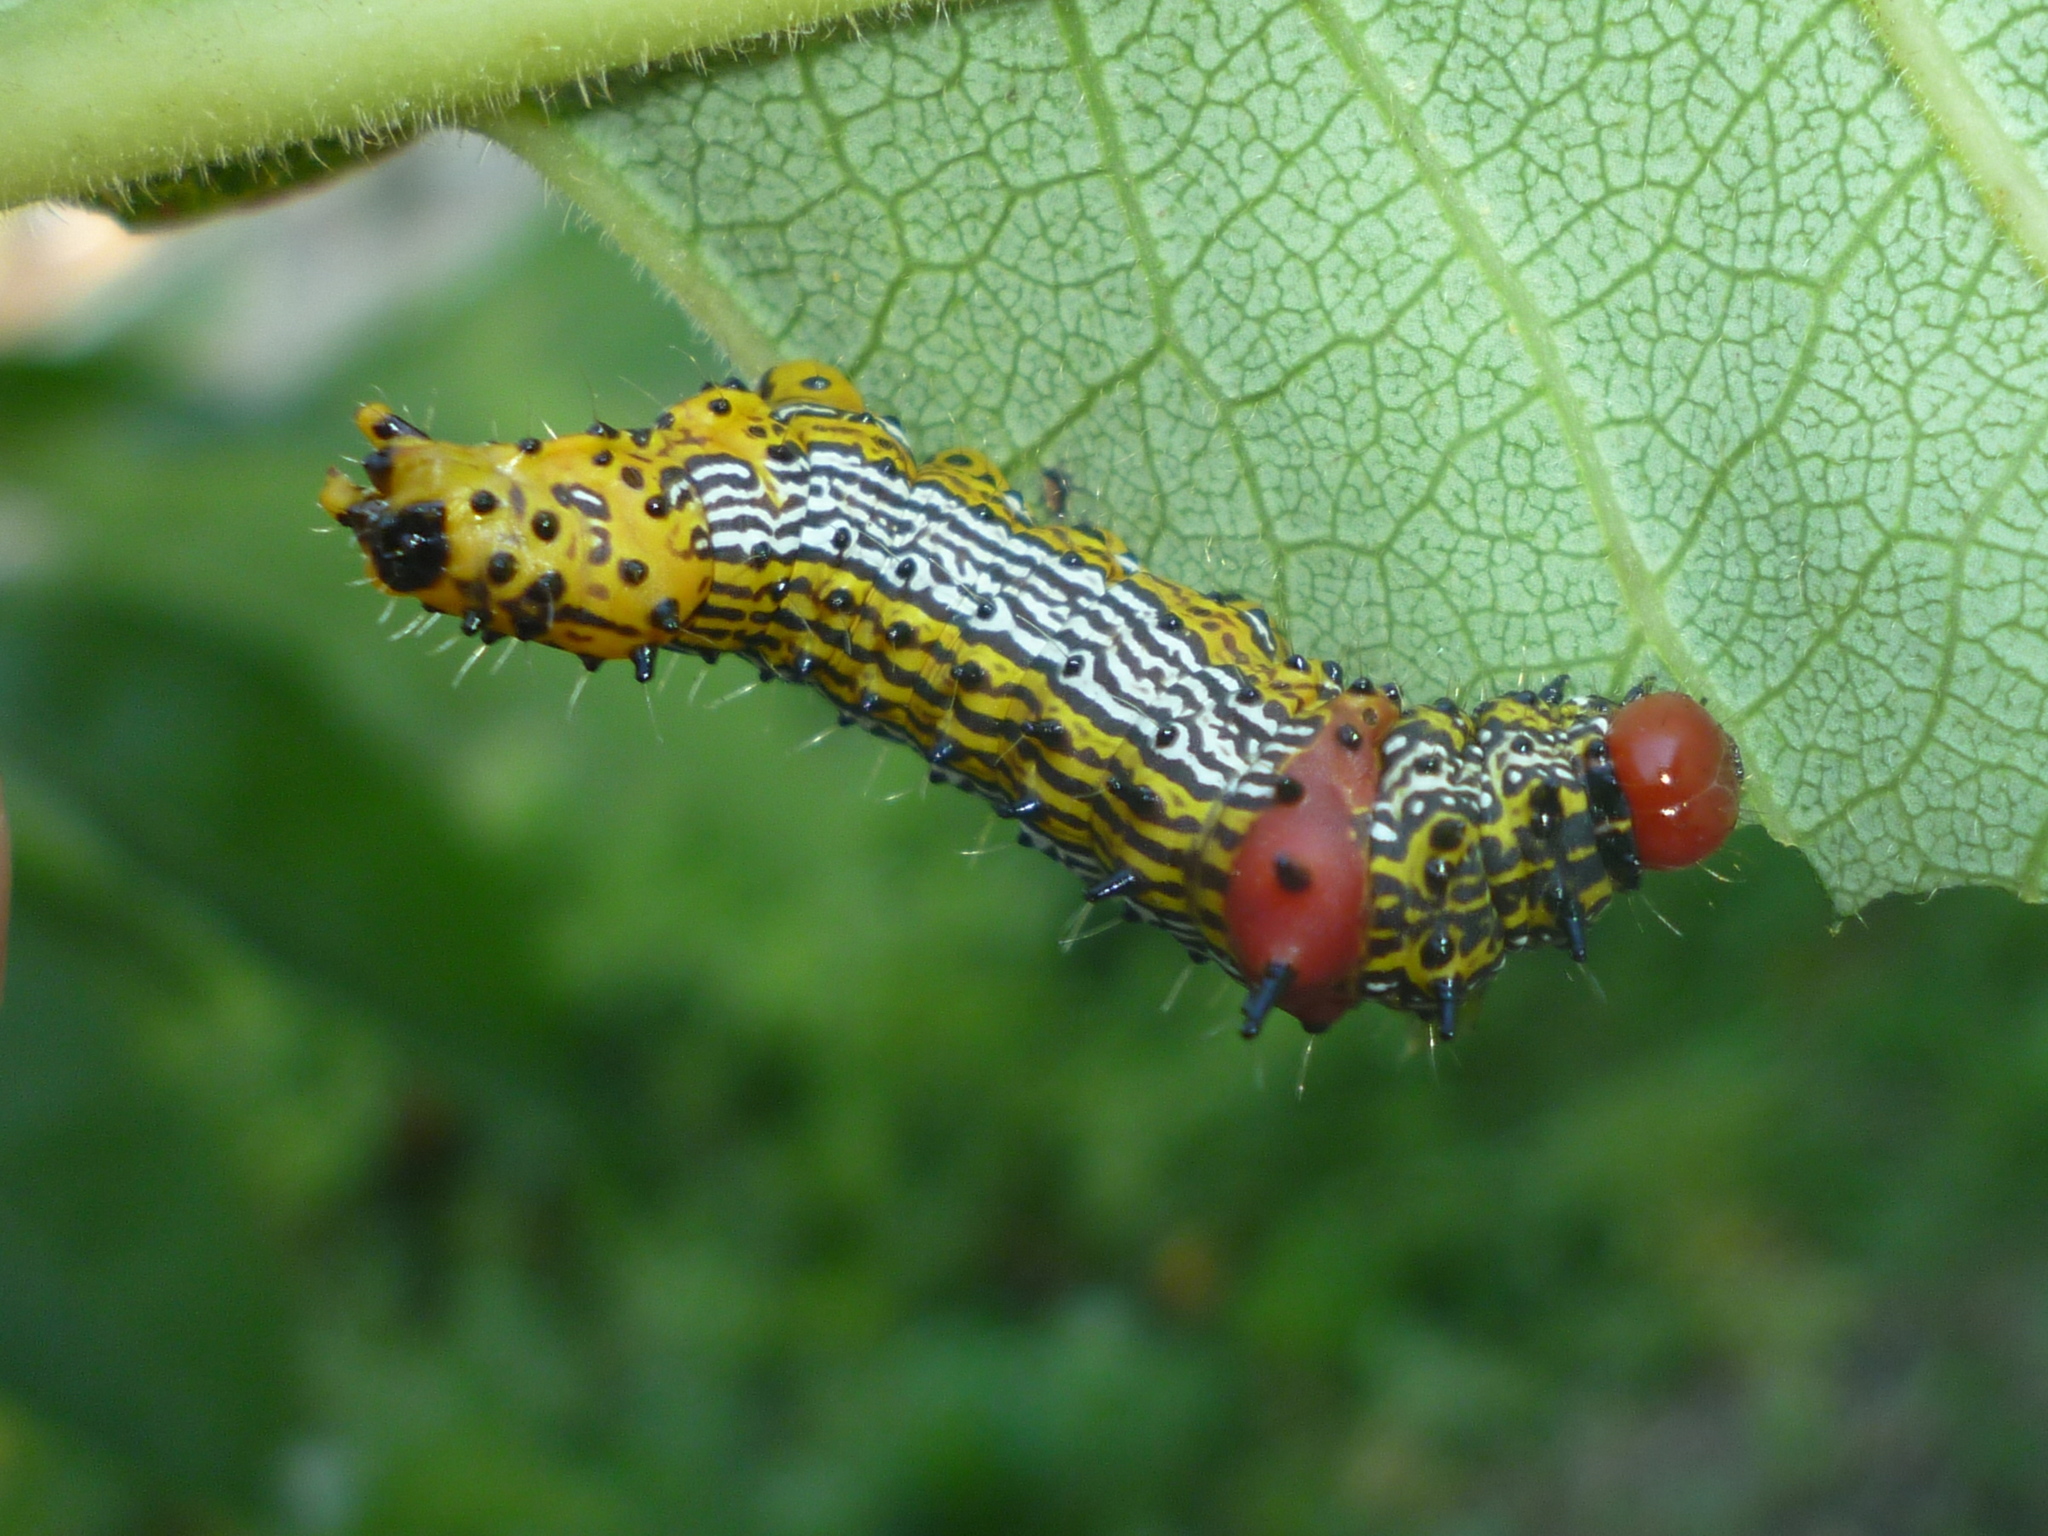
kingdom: Animalia
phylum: Arthropoda
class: Insecta
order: Lepidoptera
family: Notodontidae
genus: Schizura
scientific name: Schizura
